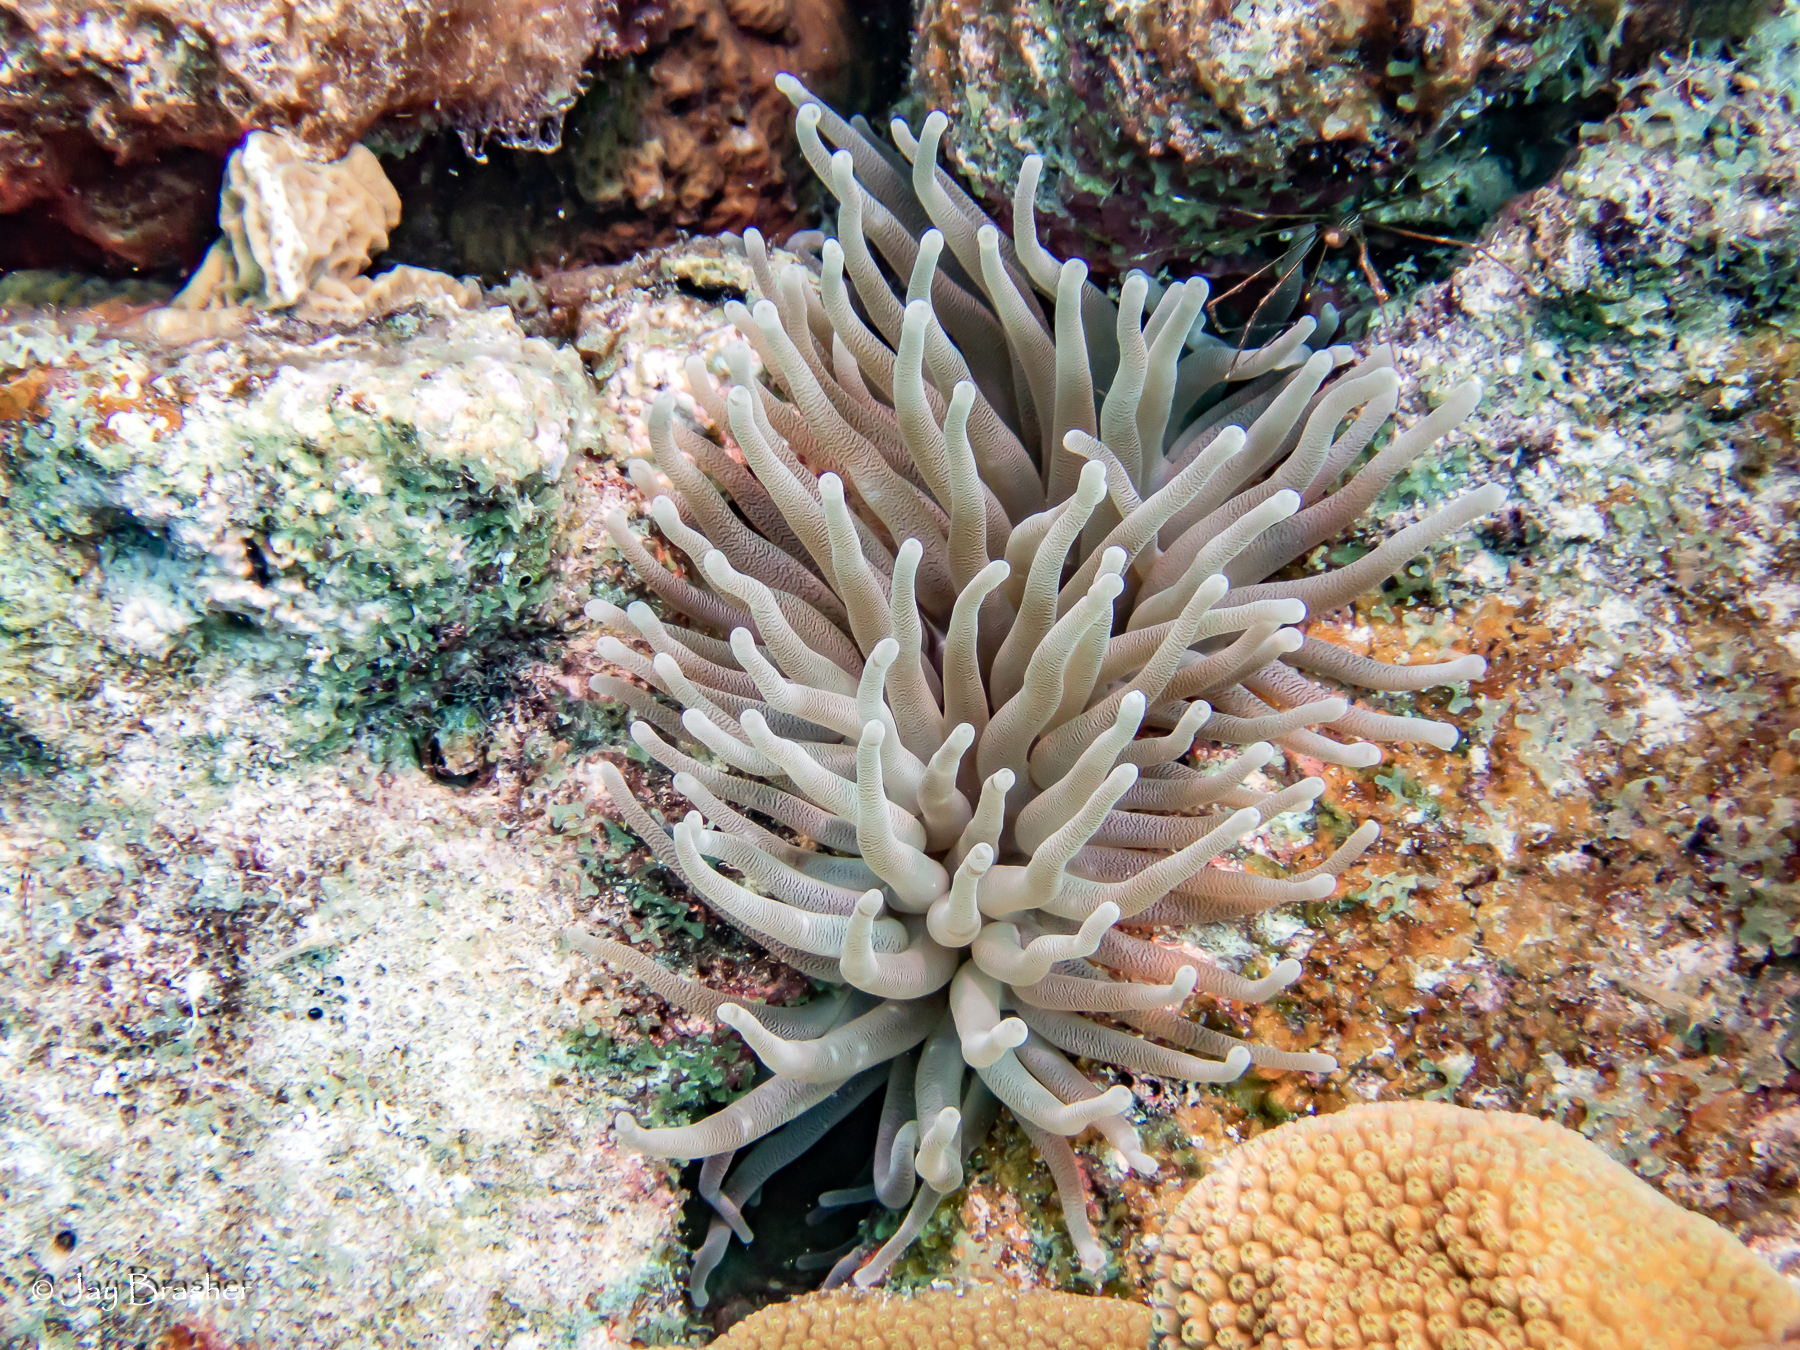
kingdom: Animalia
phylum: Cnidaria
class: Anthozoa
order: Actiniaria
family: Actiniidae
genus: Condylactis
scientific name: Condylactis gigantea
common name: Giant caribbean anemone
